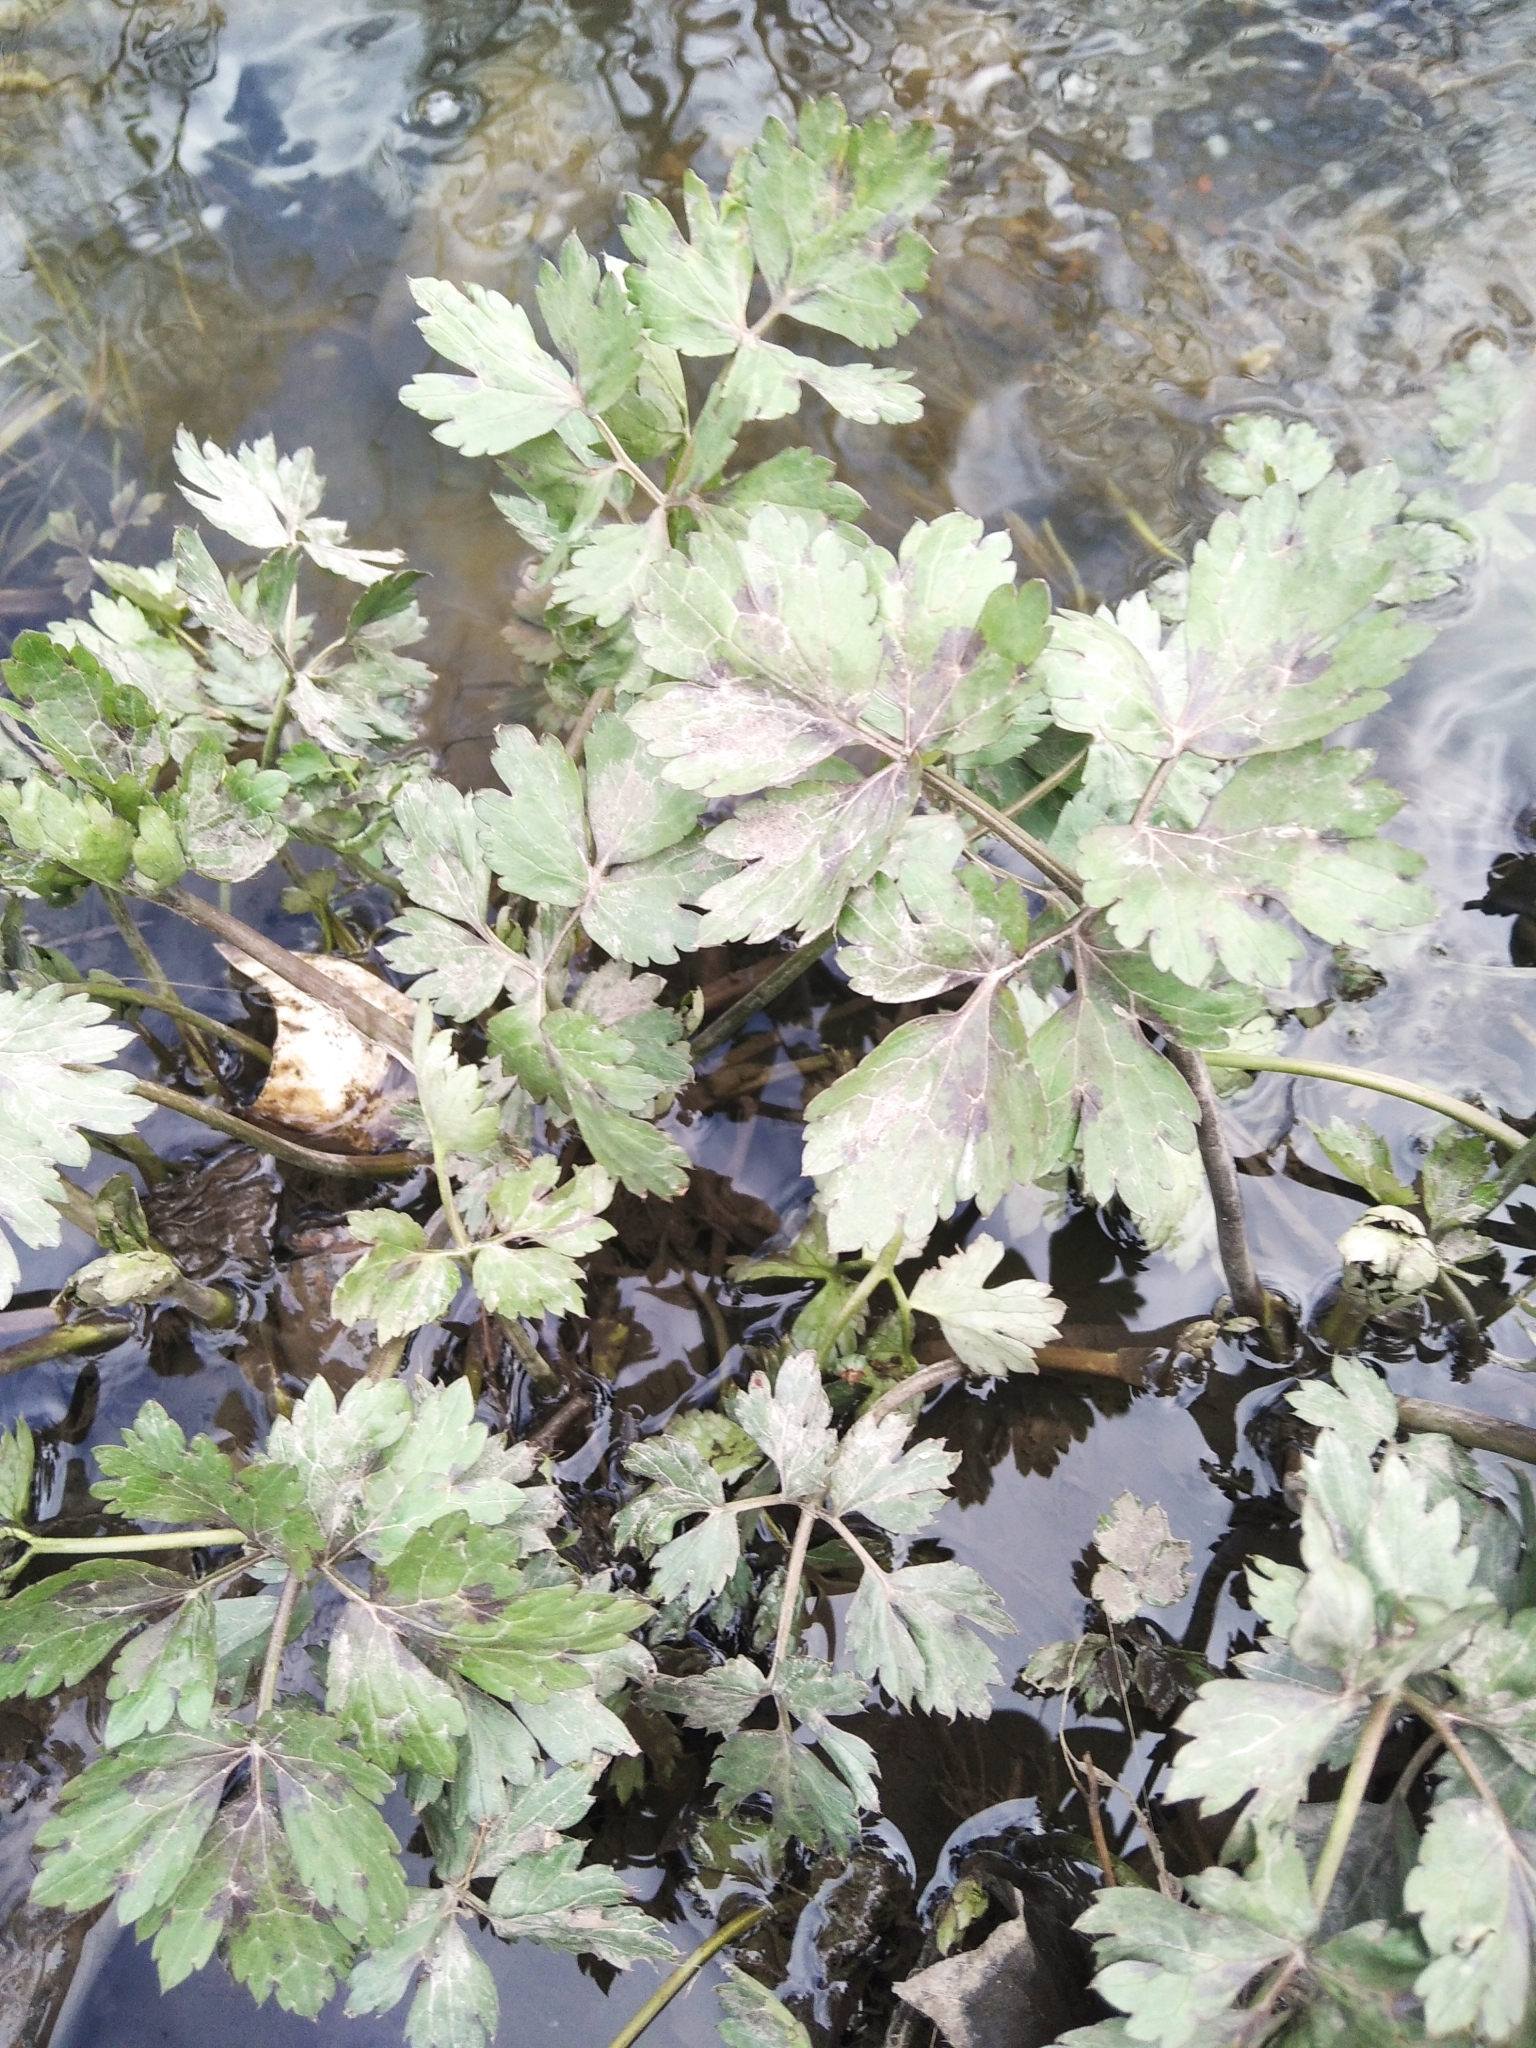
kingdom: Plantae
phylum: Tracheophyta
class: Magnoliopsida
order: Ranunculales
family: Ranunculaceae
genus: Ranunculus
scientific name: Ranunculus repens
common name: Creeping buttercup
